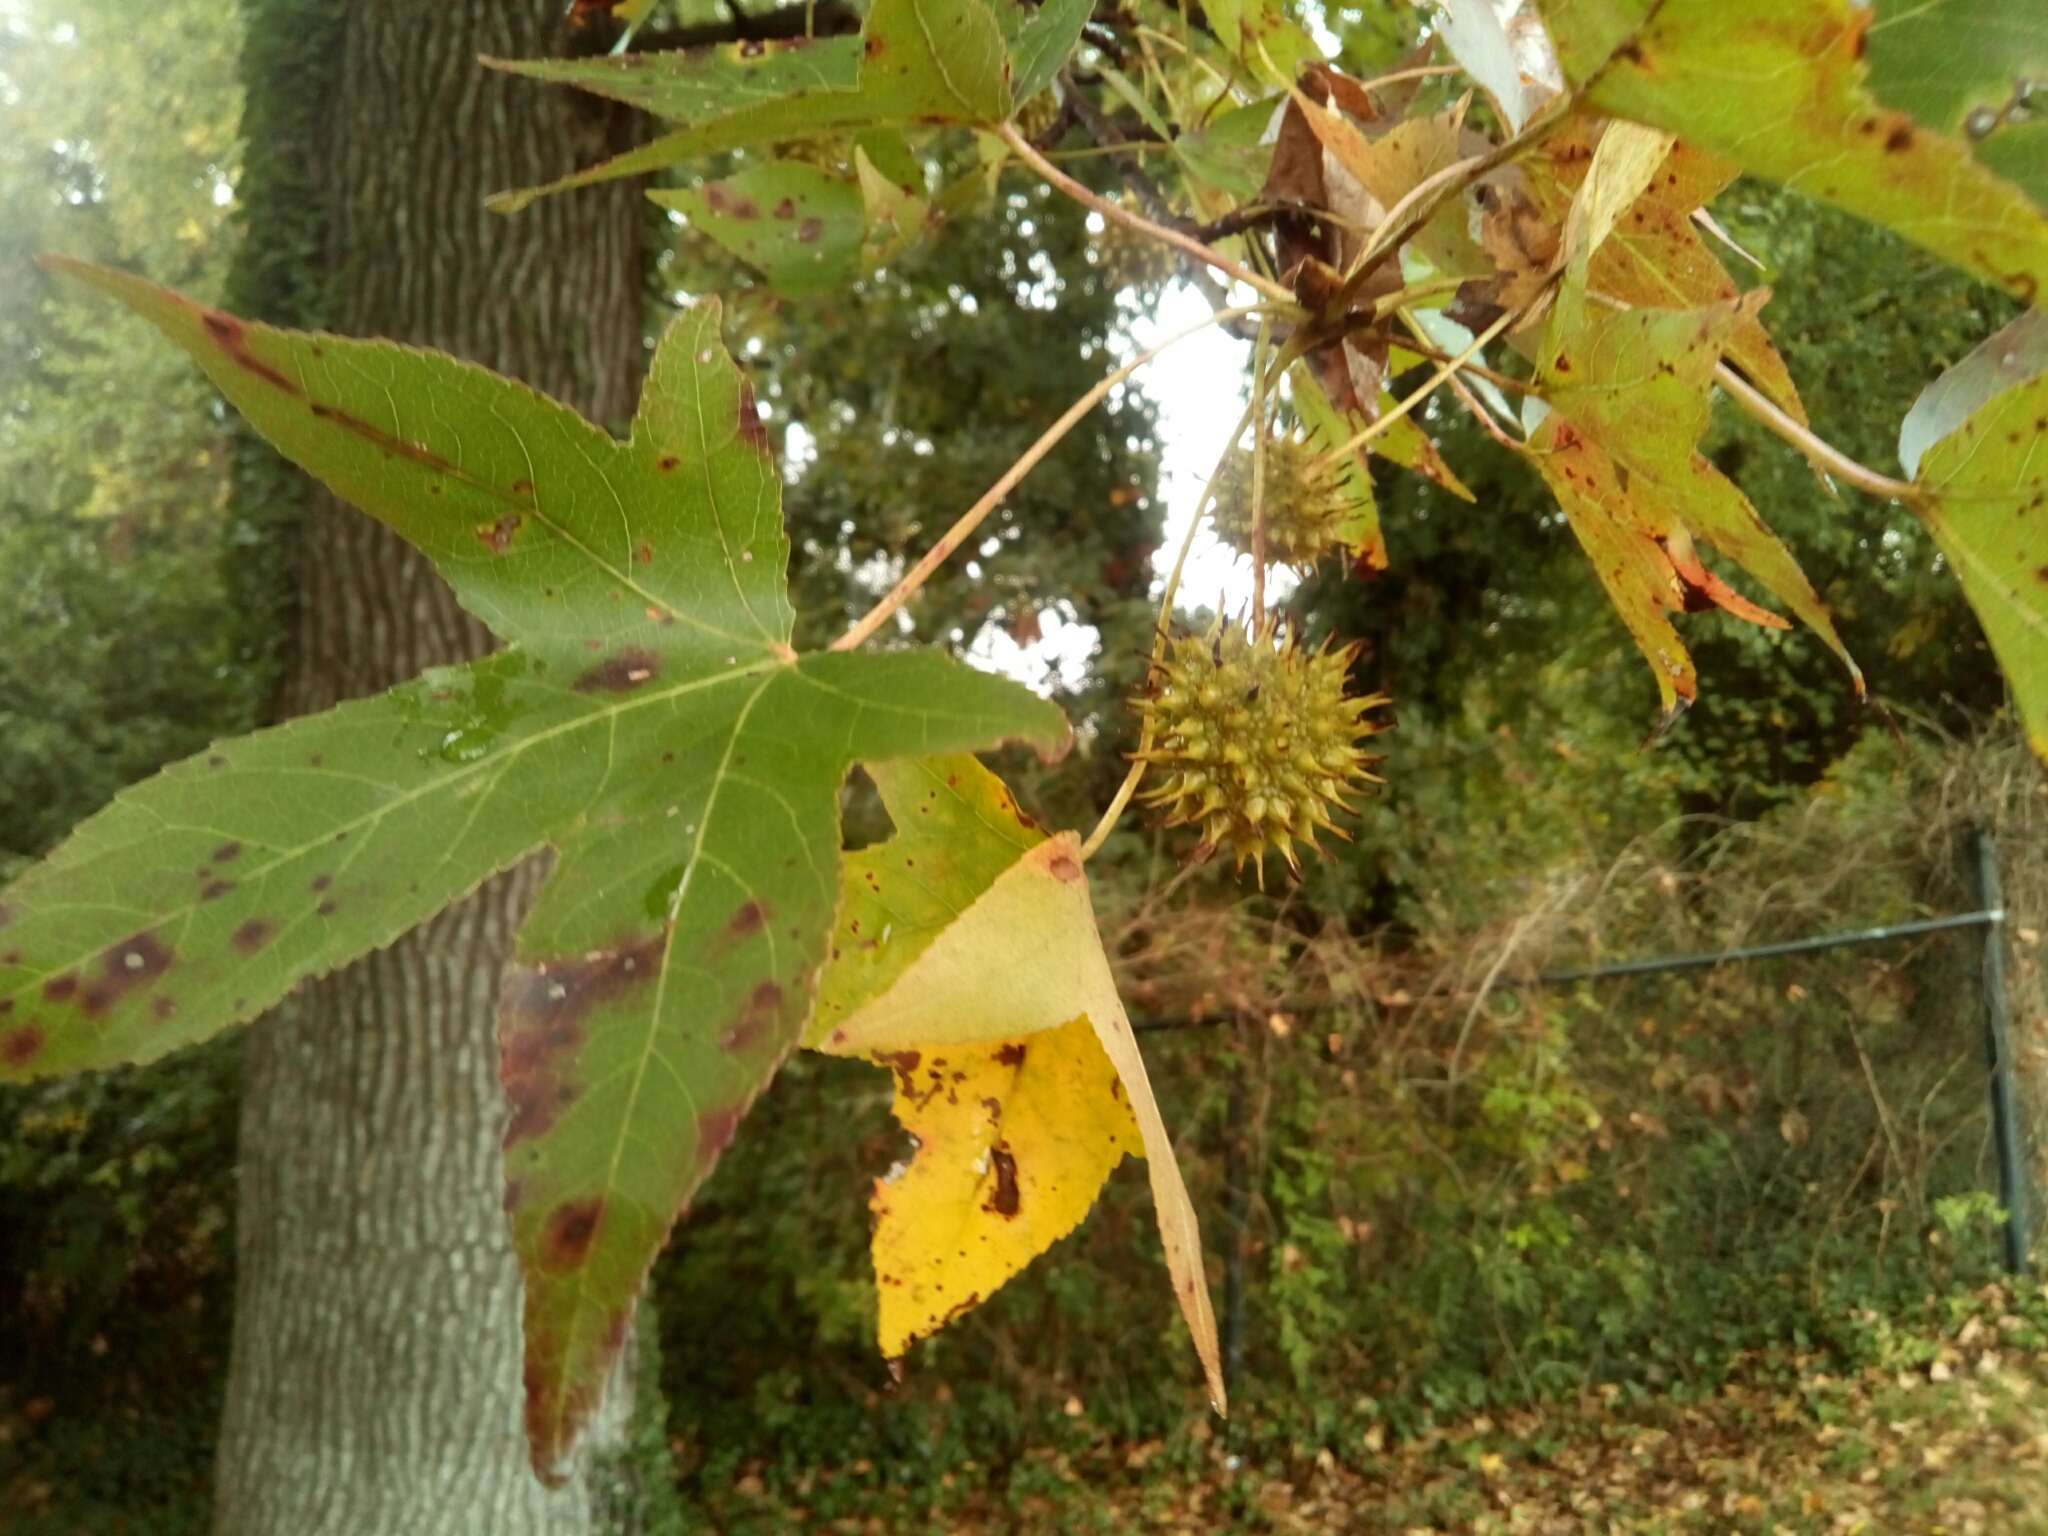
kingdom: Plantae
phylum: Tracheophyta
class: Magnoliopsida
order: Saxifragales
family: Altingiaceae
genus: Liquidambar
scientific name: Liquidambar styraciflua
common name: Sweet gum
